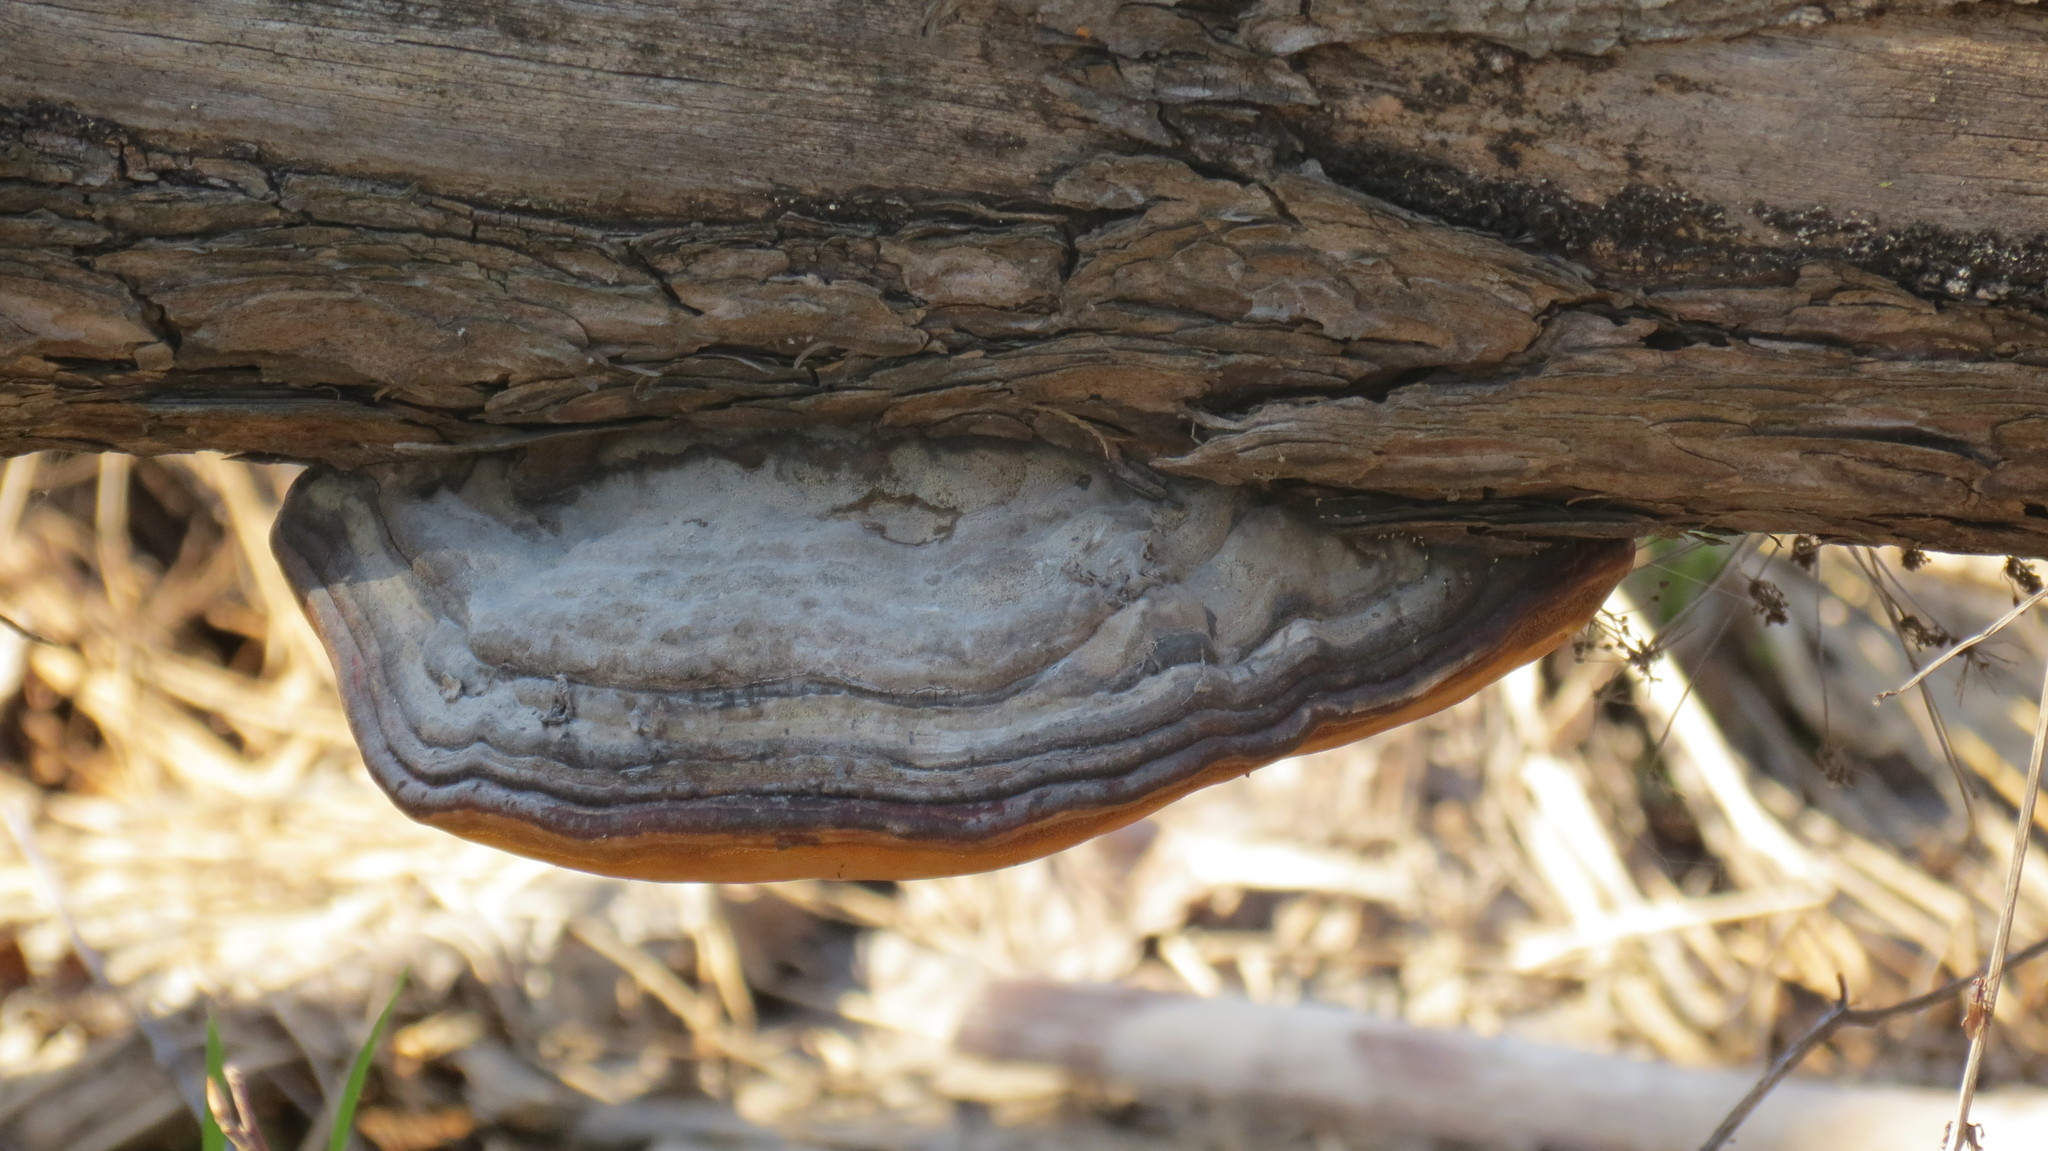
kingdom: Fungi
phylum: Basidiomycota
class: Agaricomycetes
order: Polyporales
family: Fomitopsidaceae
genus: Fomitopsis
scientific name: Fomitopsis pinicola
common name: Red-belted bracket
